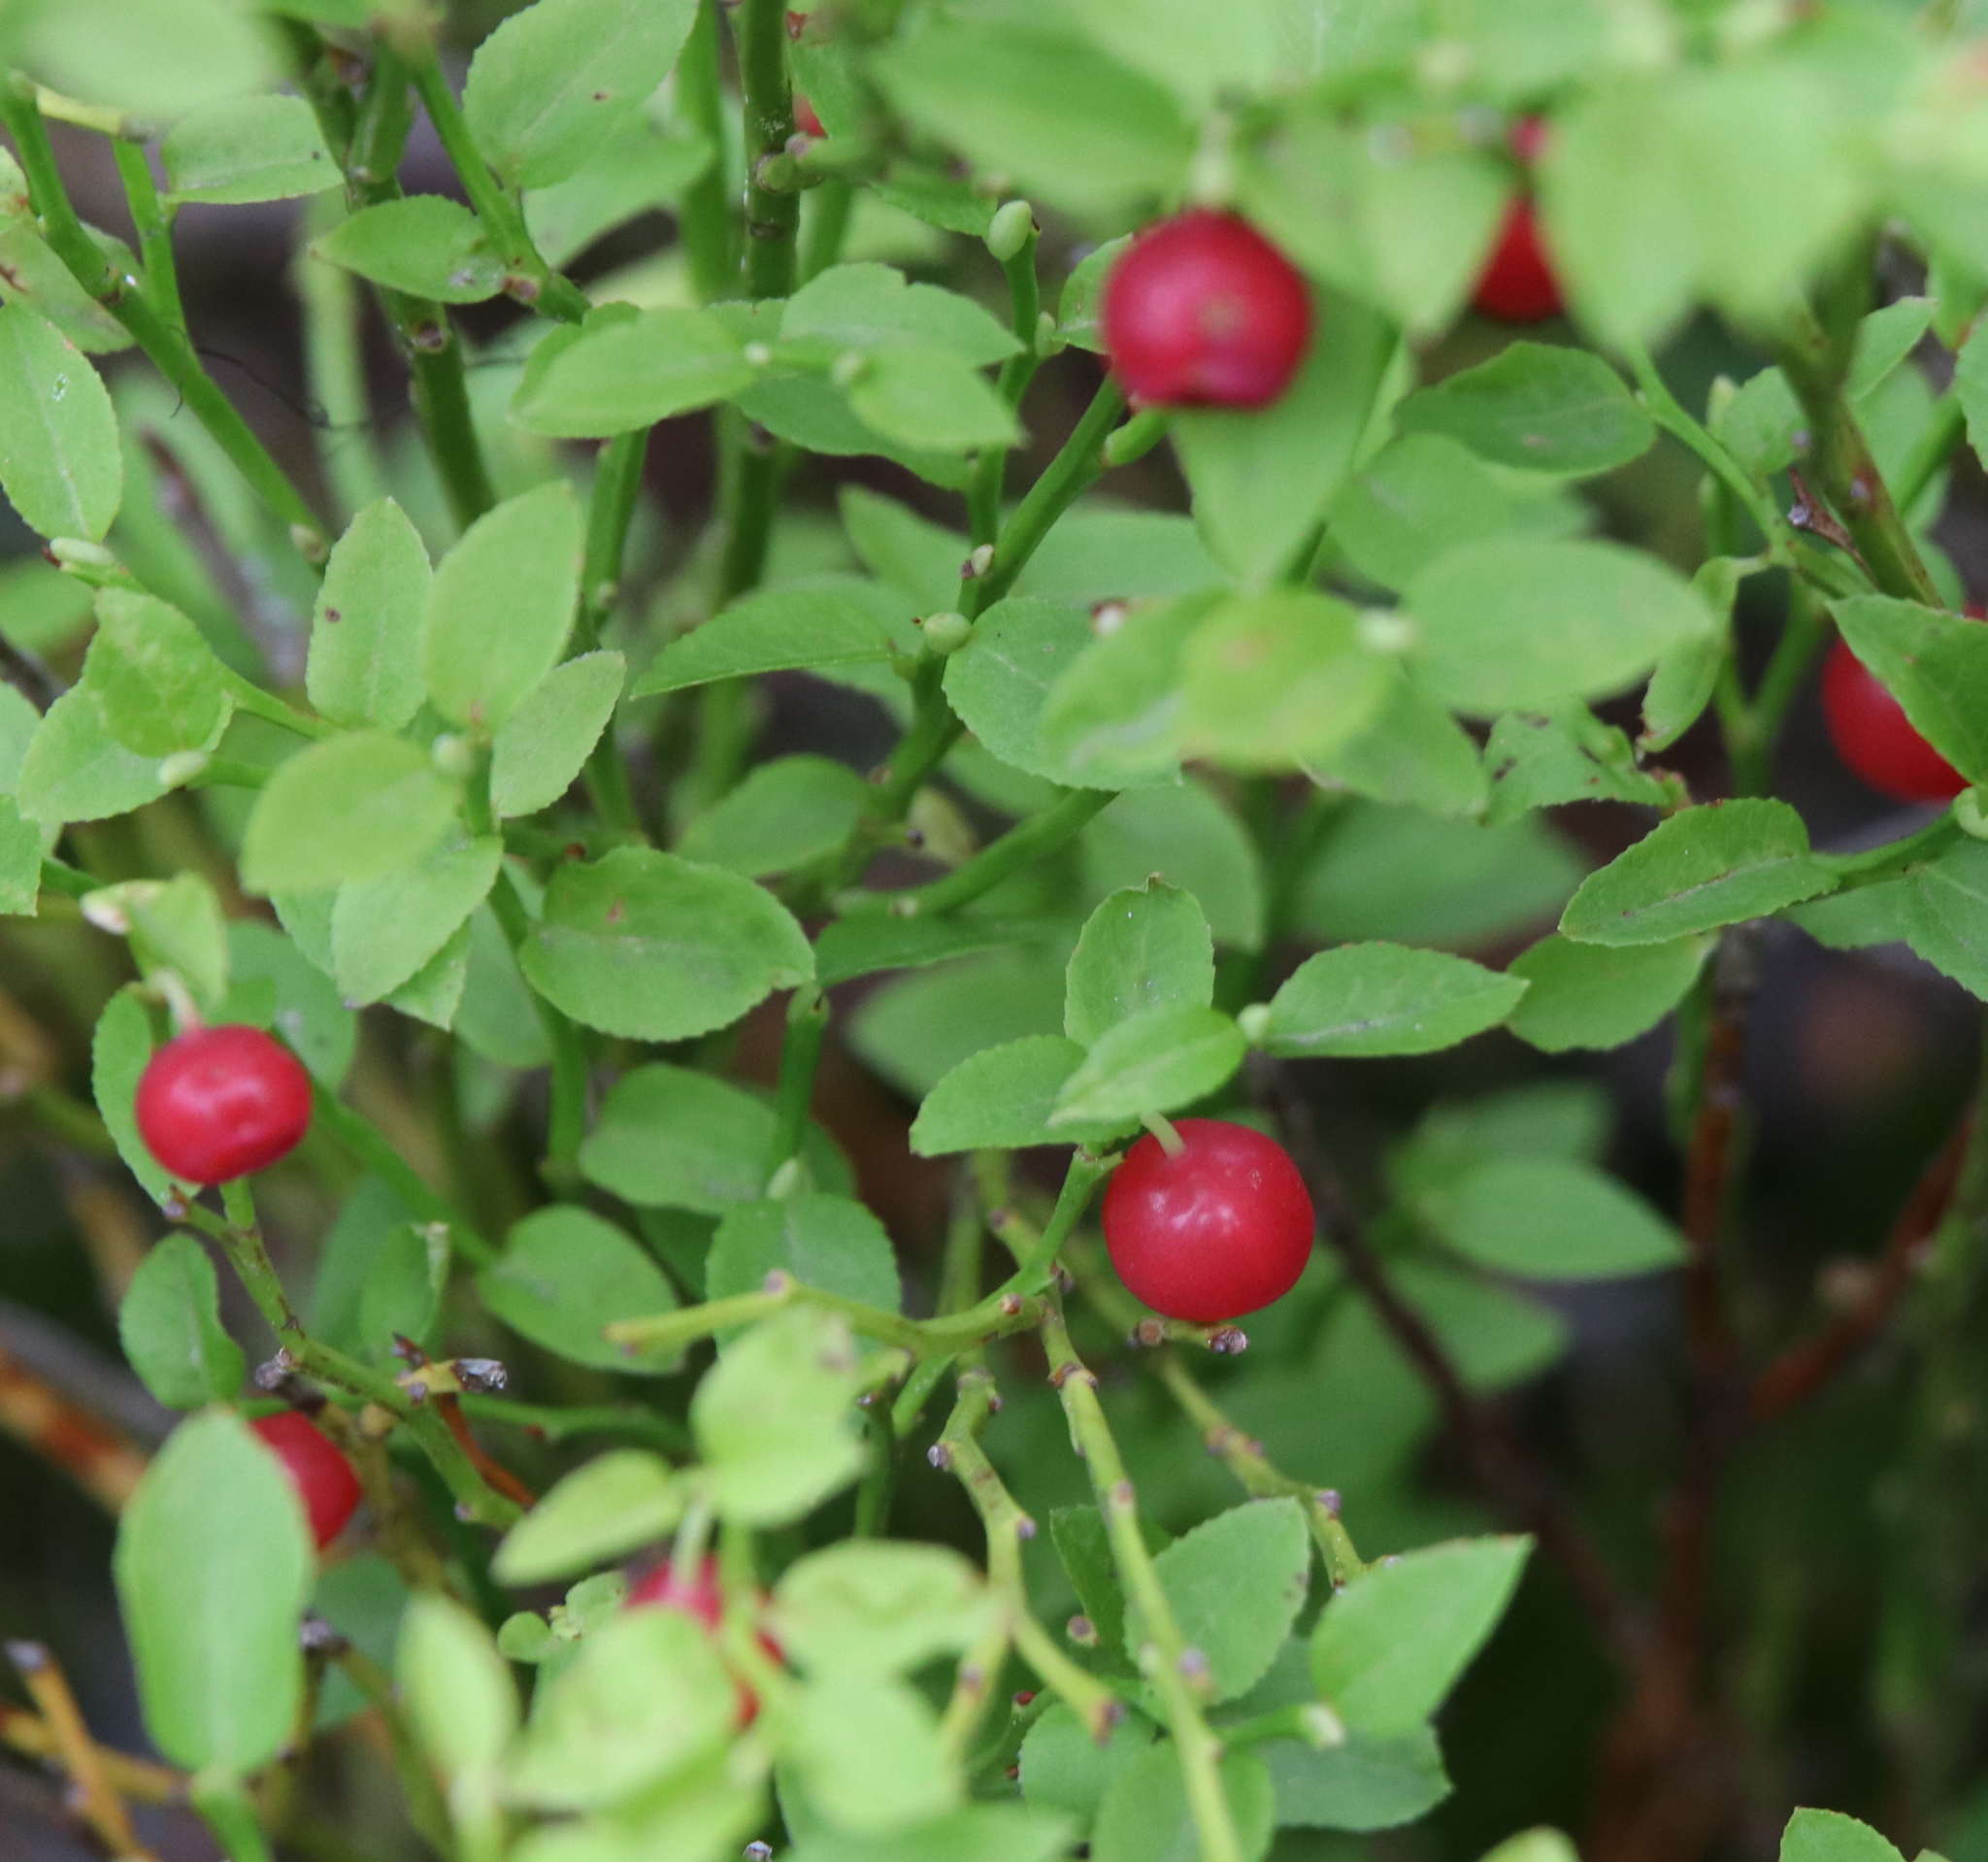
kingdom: Plantae
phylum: Tracheophyta
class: Magnoliopsida
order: Ericales
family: Ericaceae
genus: Vaccinium
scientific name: Vaccinium myrtillus
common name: Bilberry
